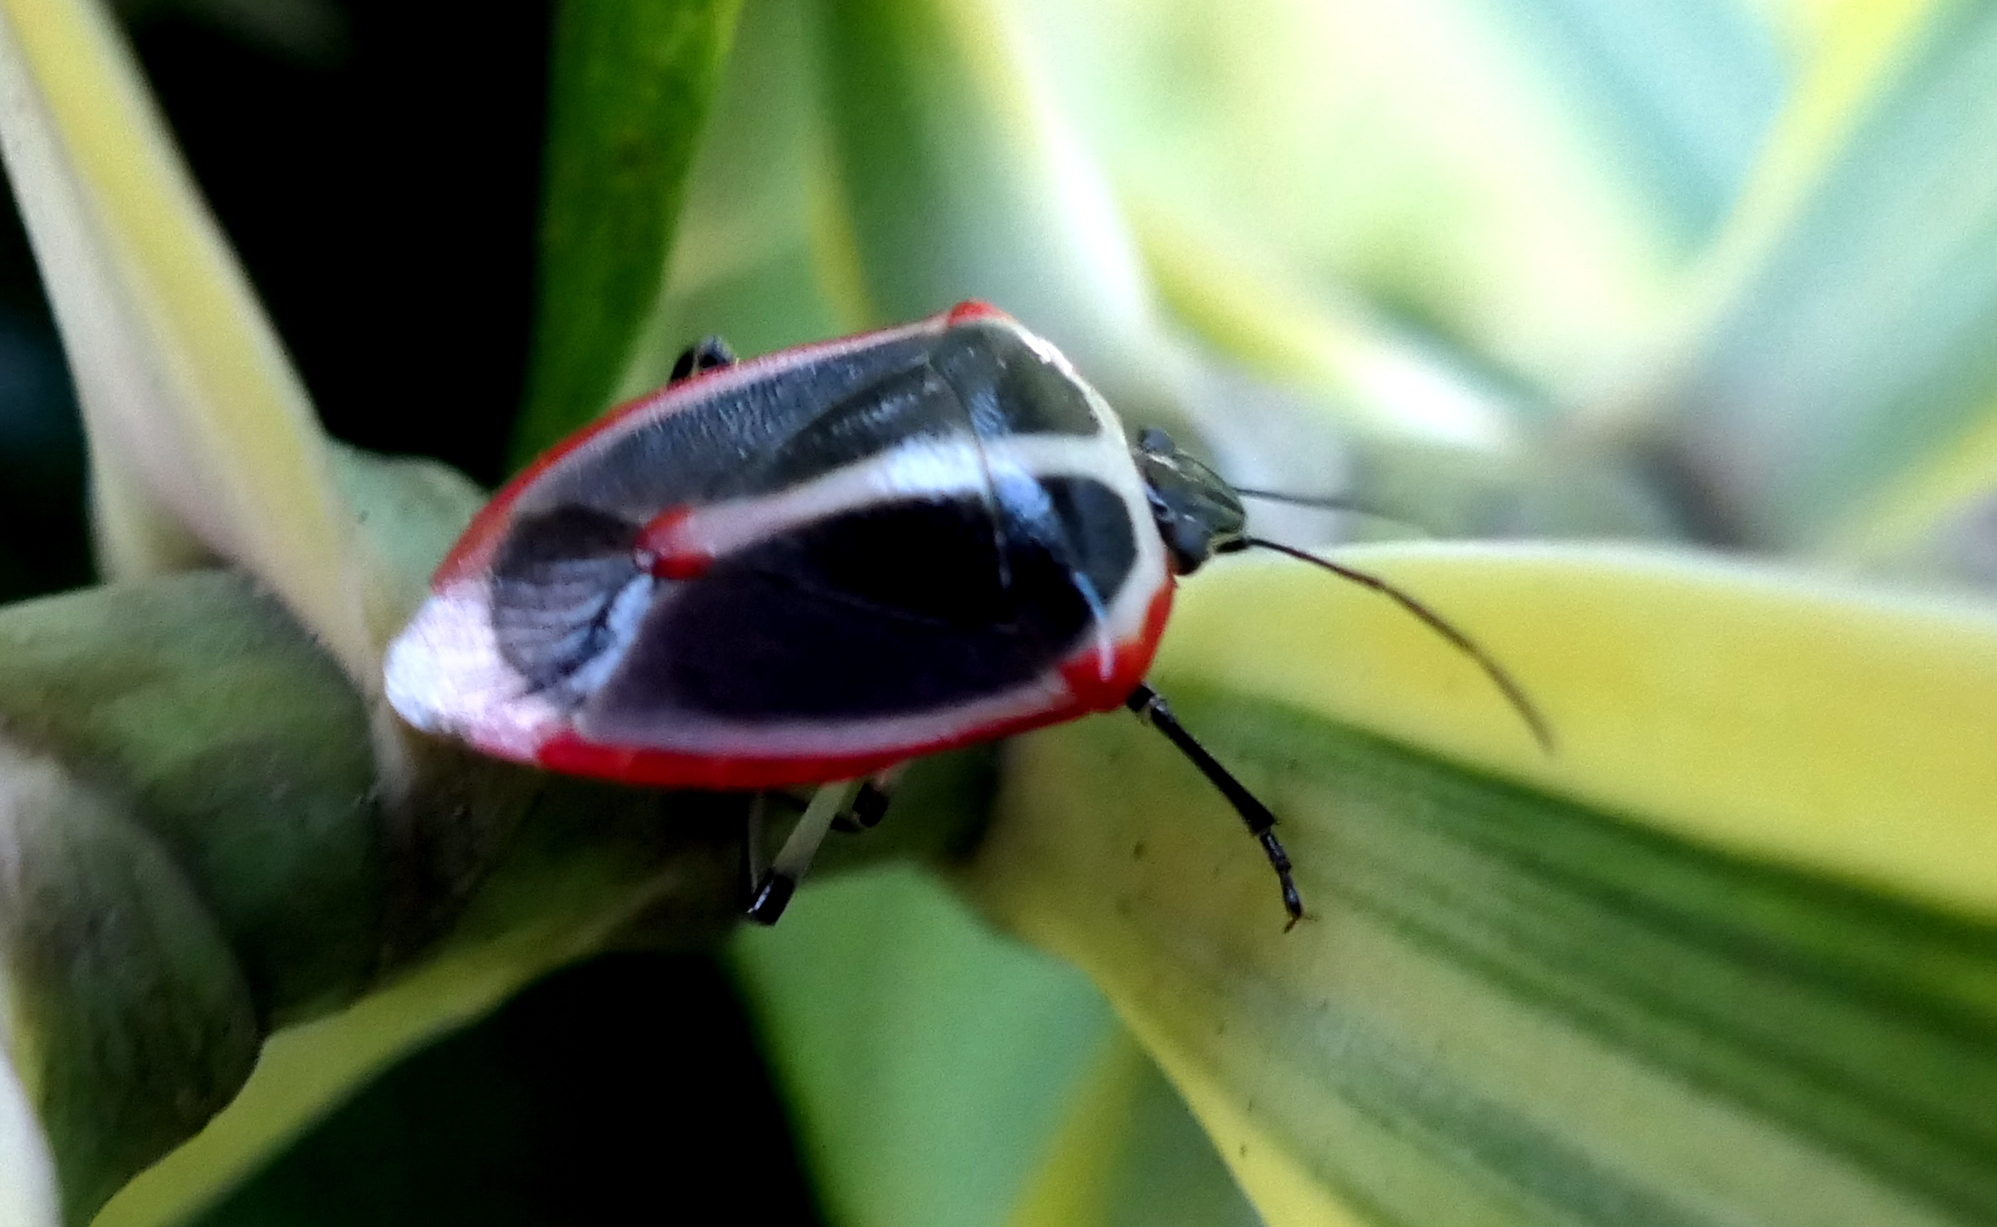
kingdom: Animalia
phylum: Arthropoda
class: Insecta
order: Hemiptera
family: Pentatomidae
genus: Roferta
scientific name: Roferta marginalis
